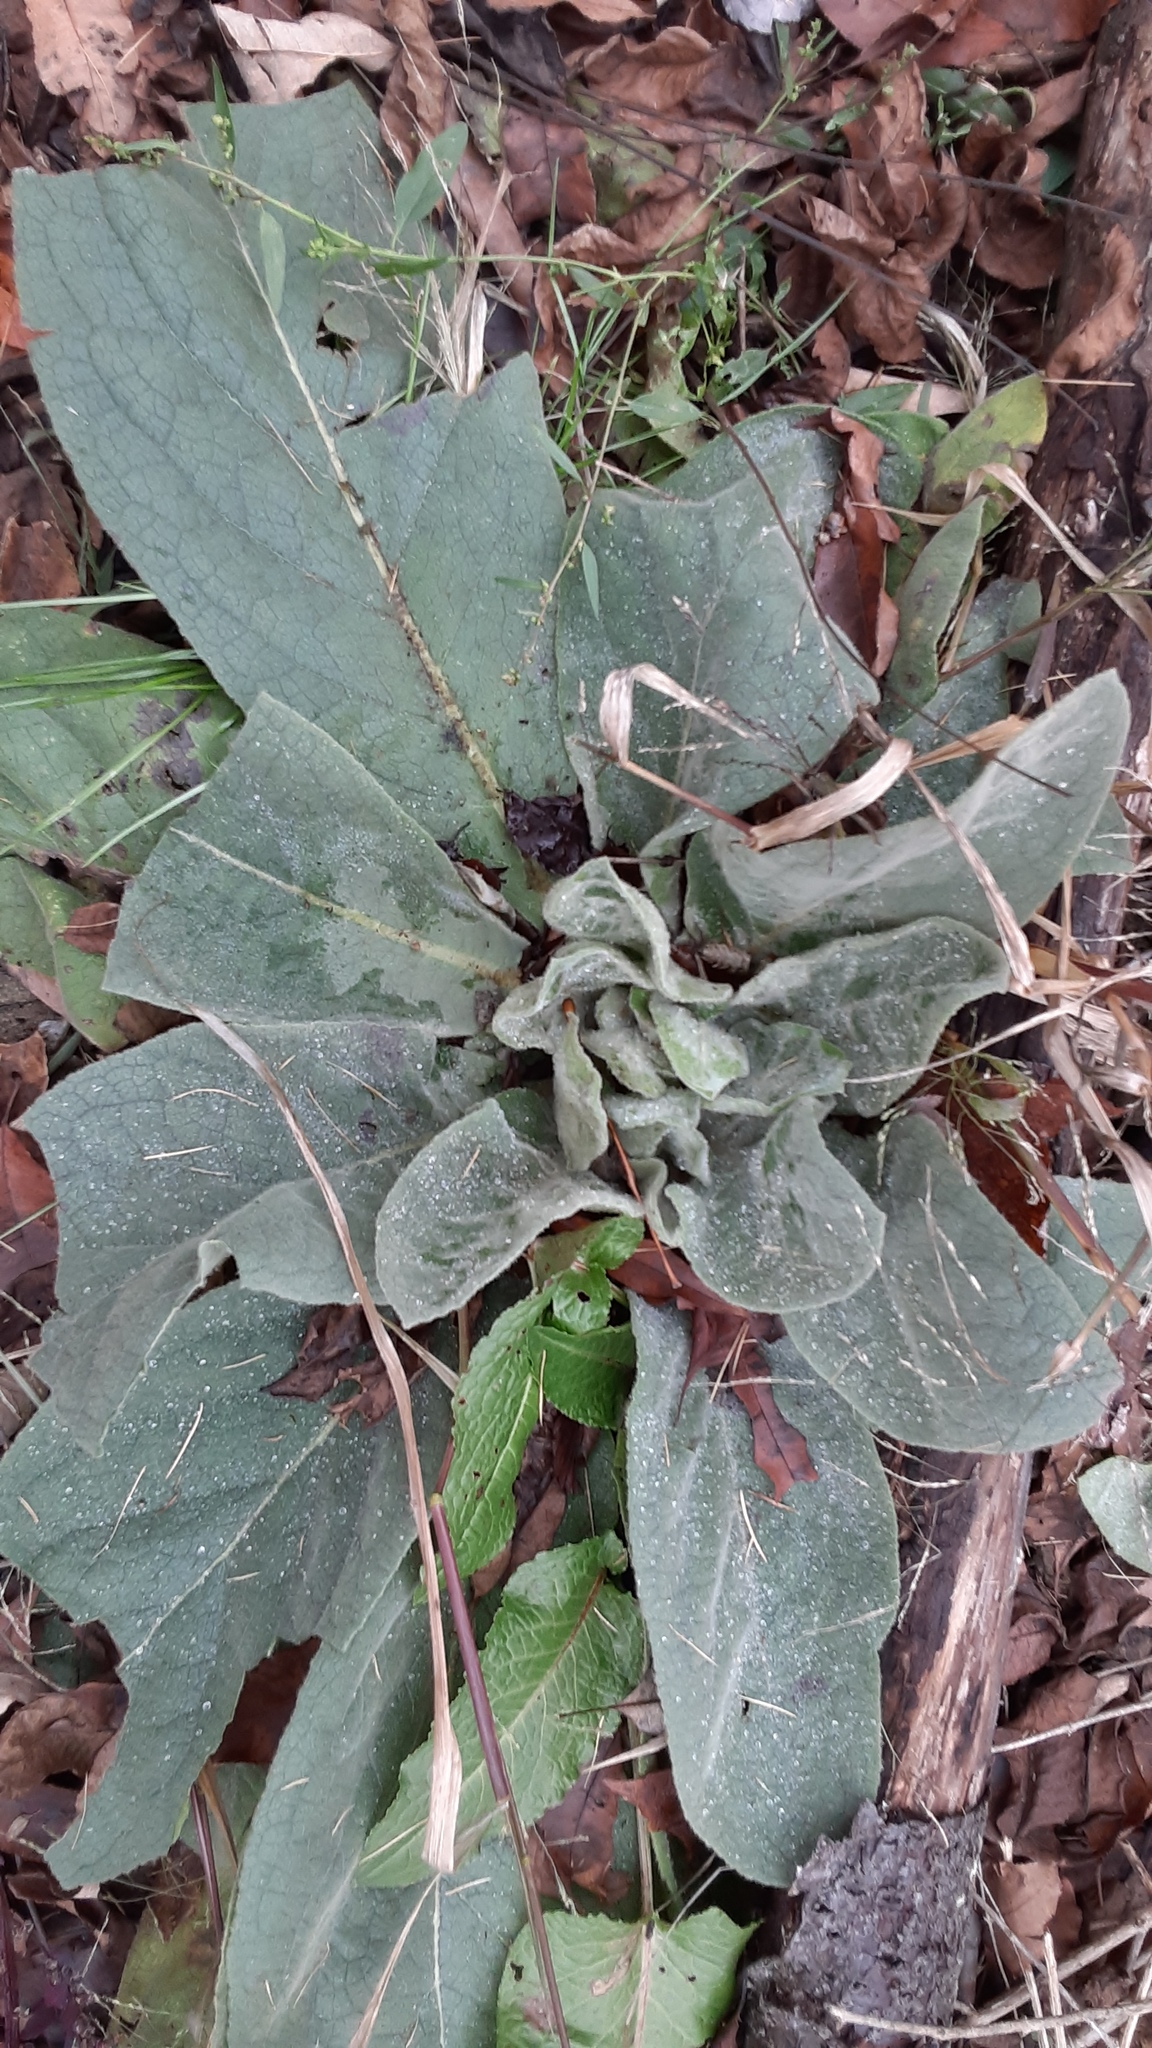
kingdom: Plantae
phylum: Tracheophyta
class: Magnoliopsida
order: Lamiales
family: Scrophulariaceae
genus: Verbascum
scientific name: Verbascum thapsus
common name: Common mullein
